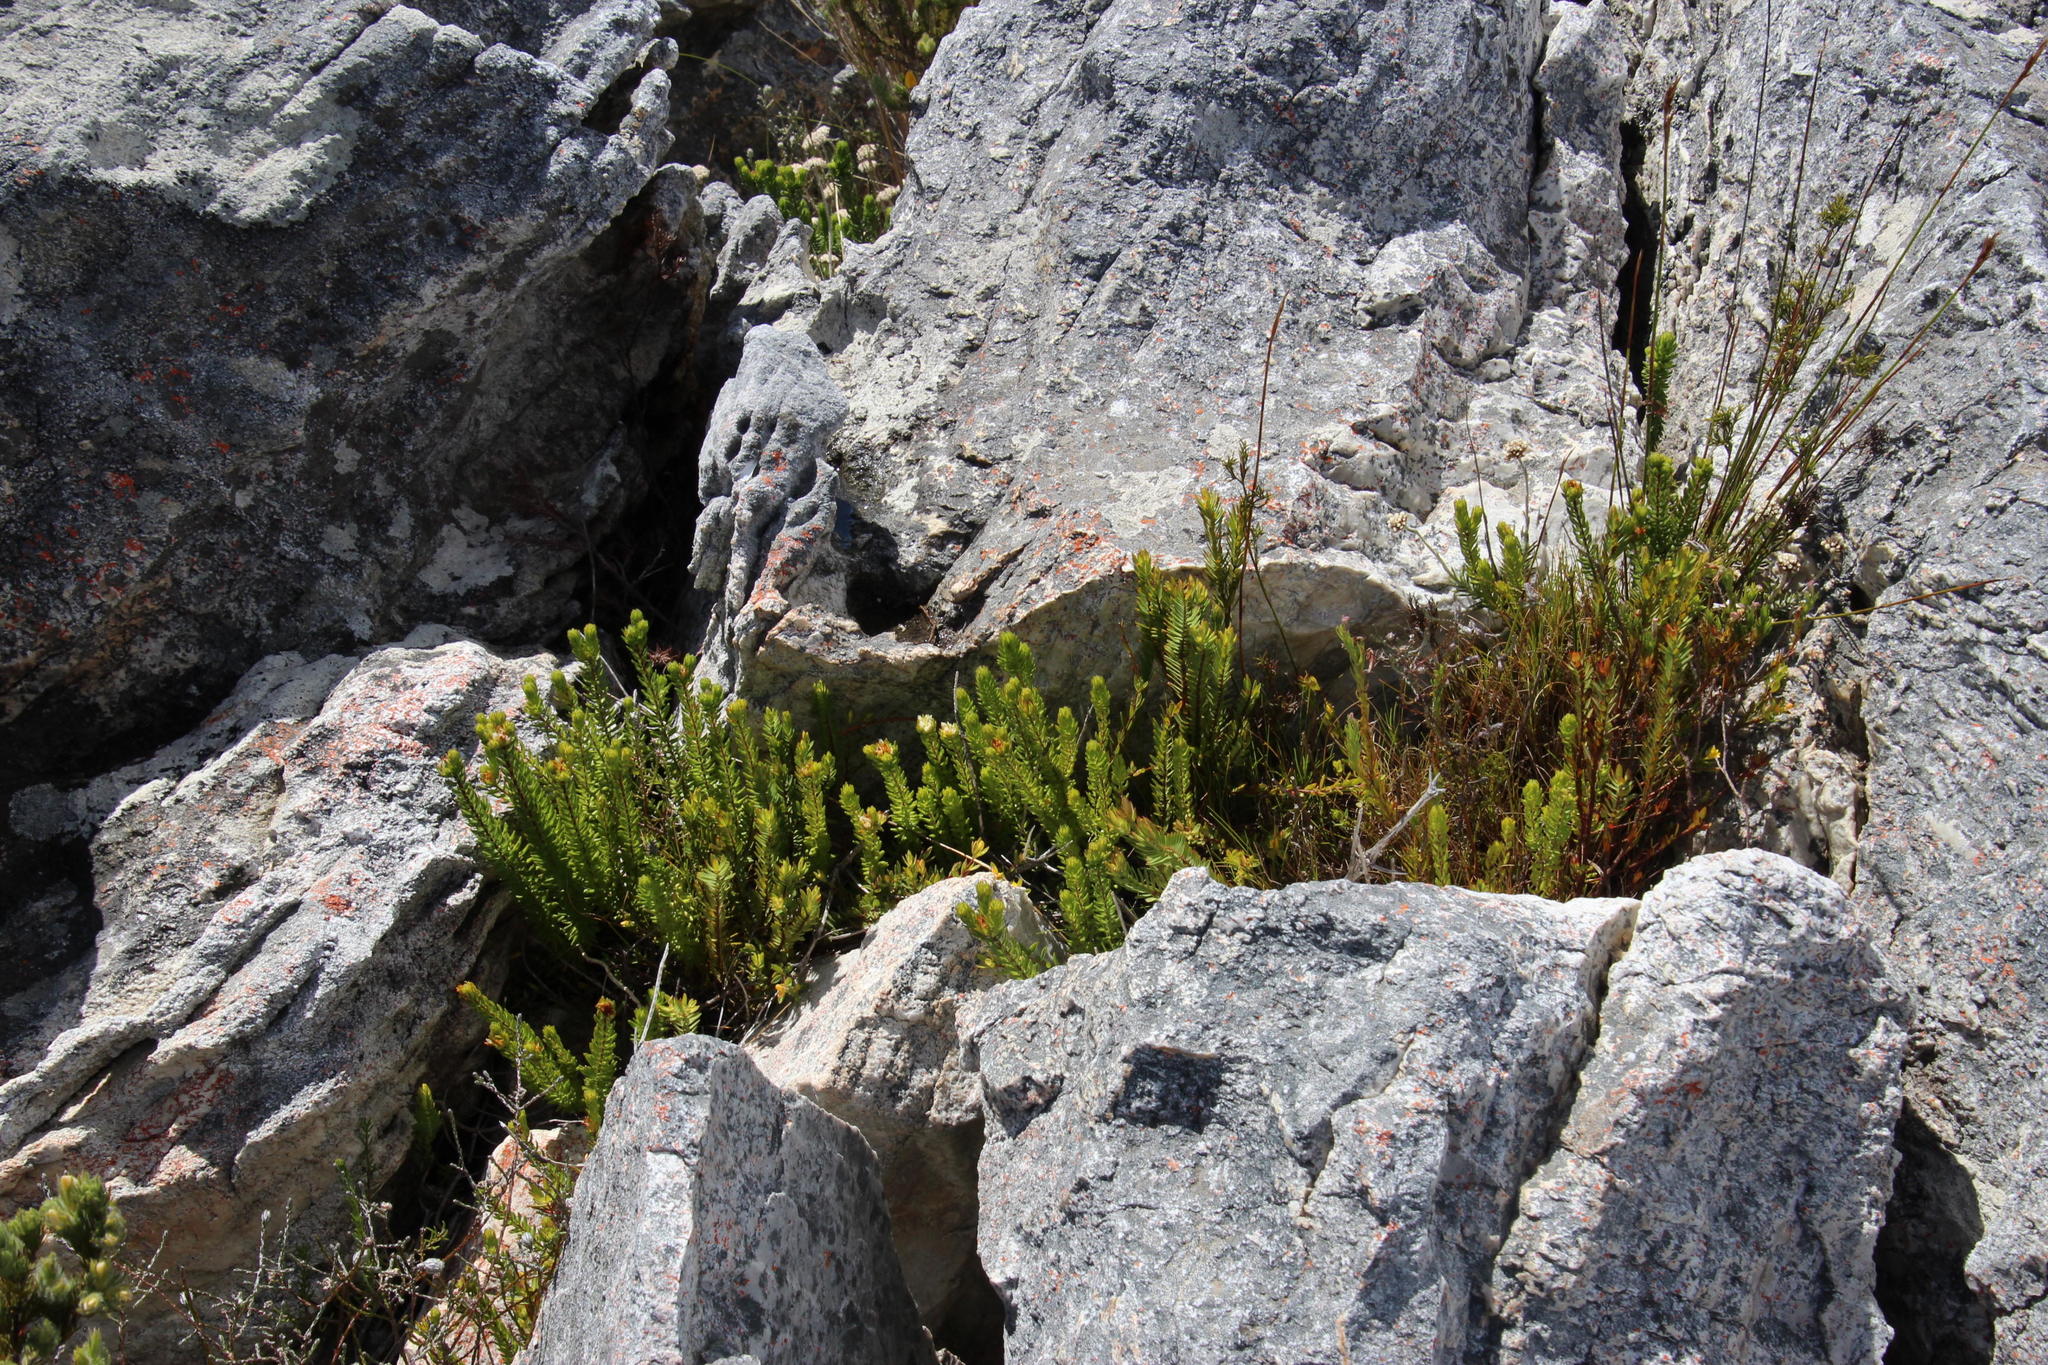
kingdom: Plantae
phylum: Tracheophyta
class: Magnoliopsida
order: Sapindales
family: Rutaceae
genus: Agathosma
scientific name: Agathosma rosmarinifolia
